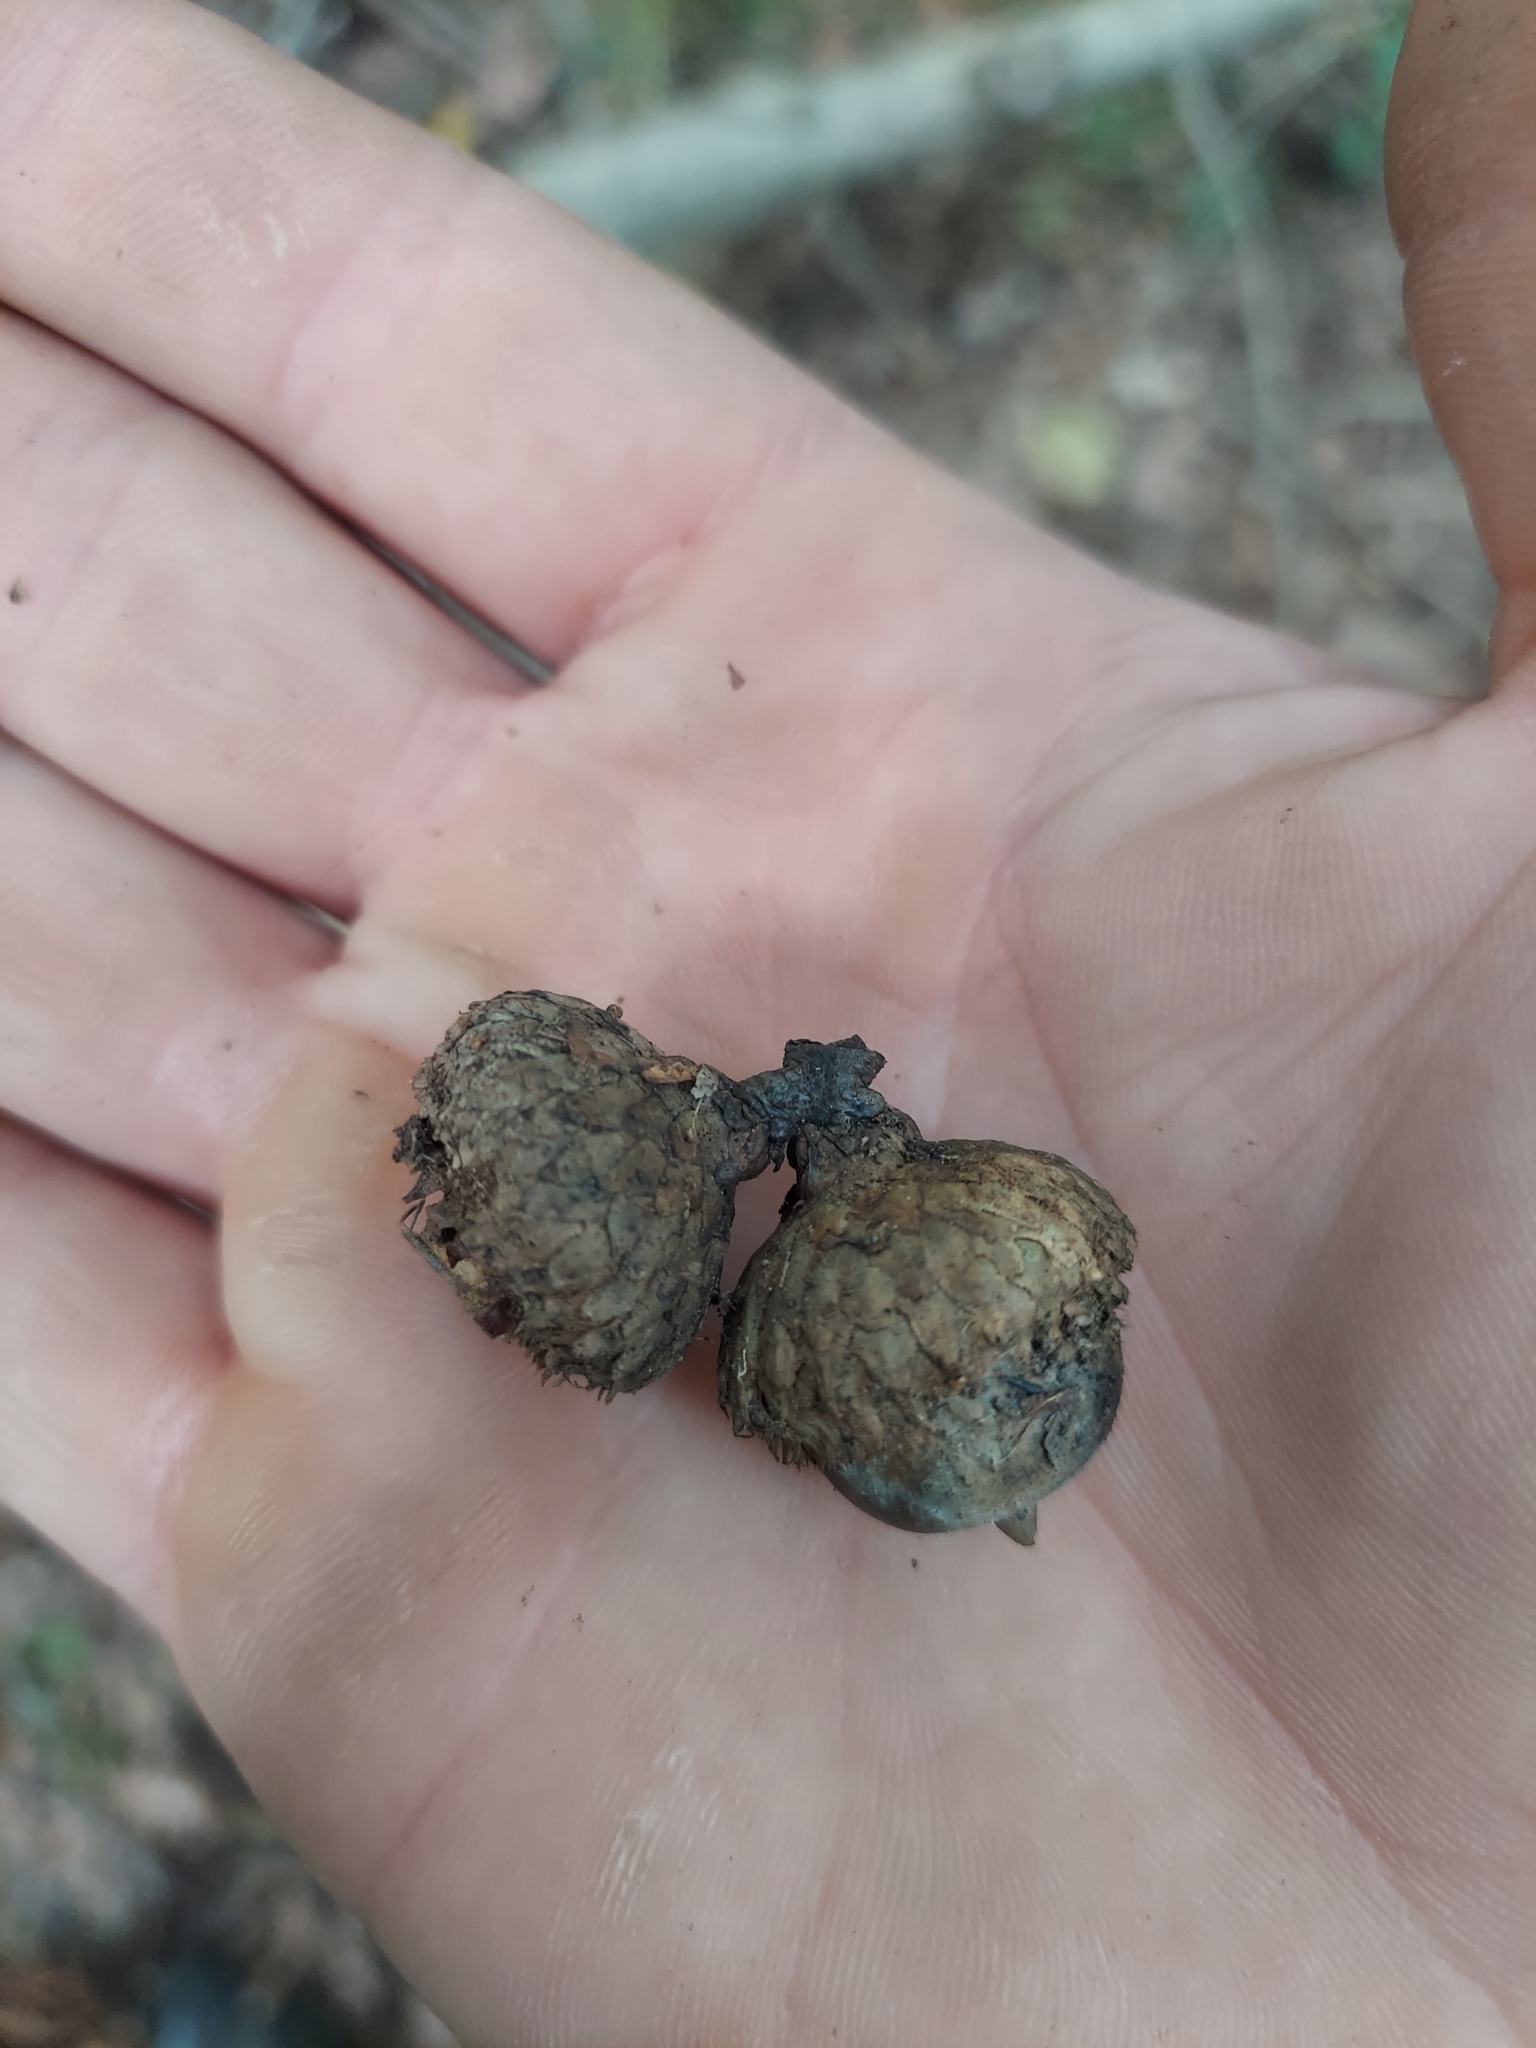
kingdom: Plantae
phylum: Tracheophyta
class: Magnoliopsida
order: Fagales
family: Fagaceae
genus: Quercus
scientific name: Quercus velutina
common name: Black oak
